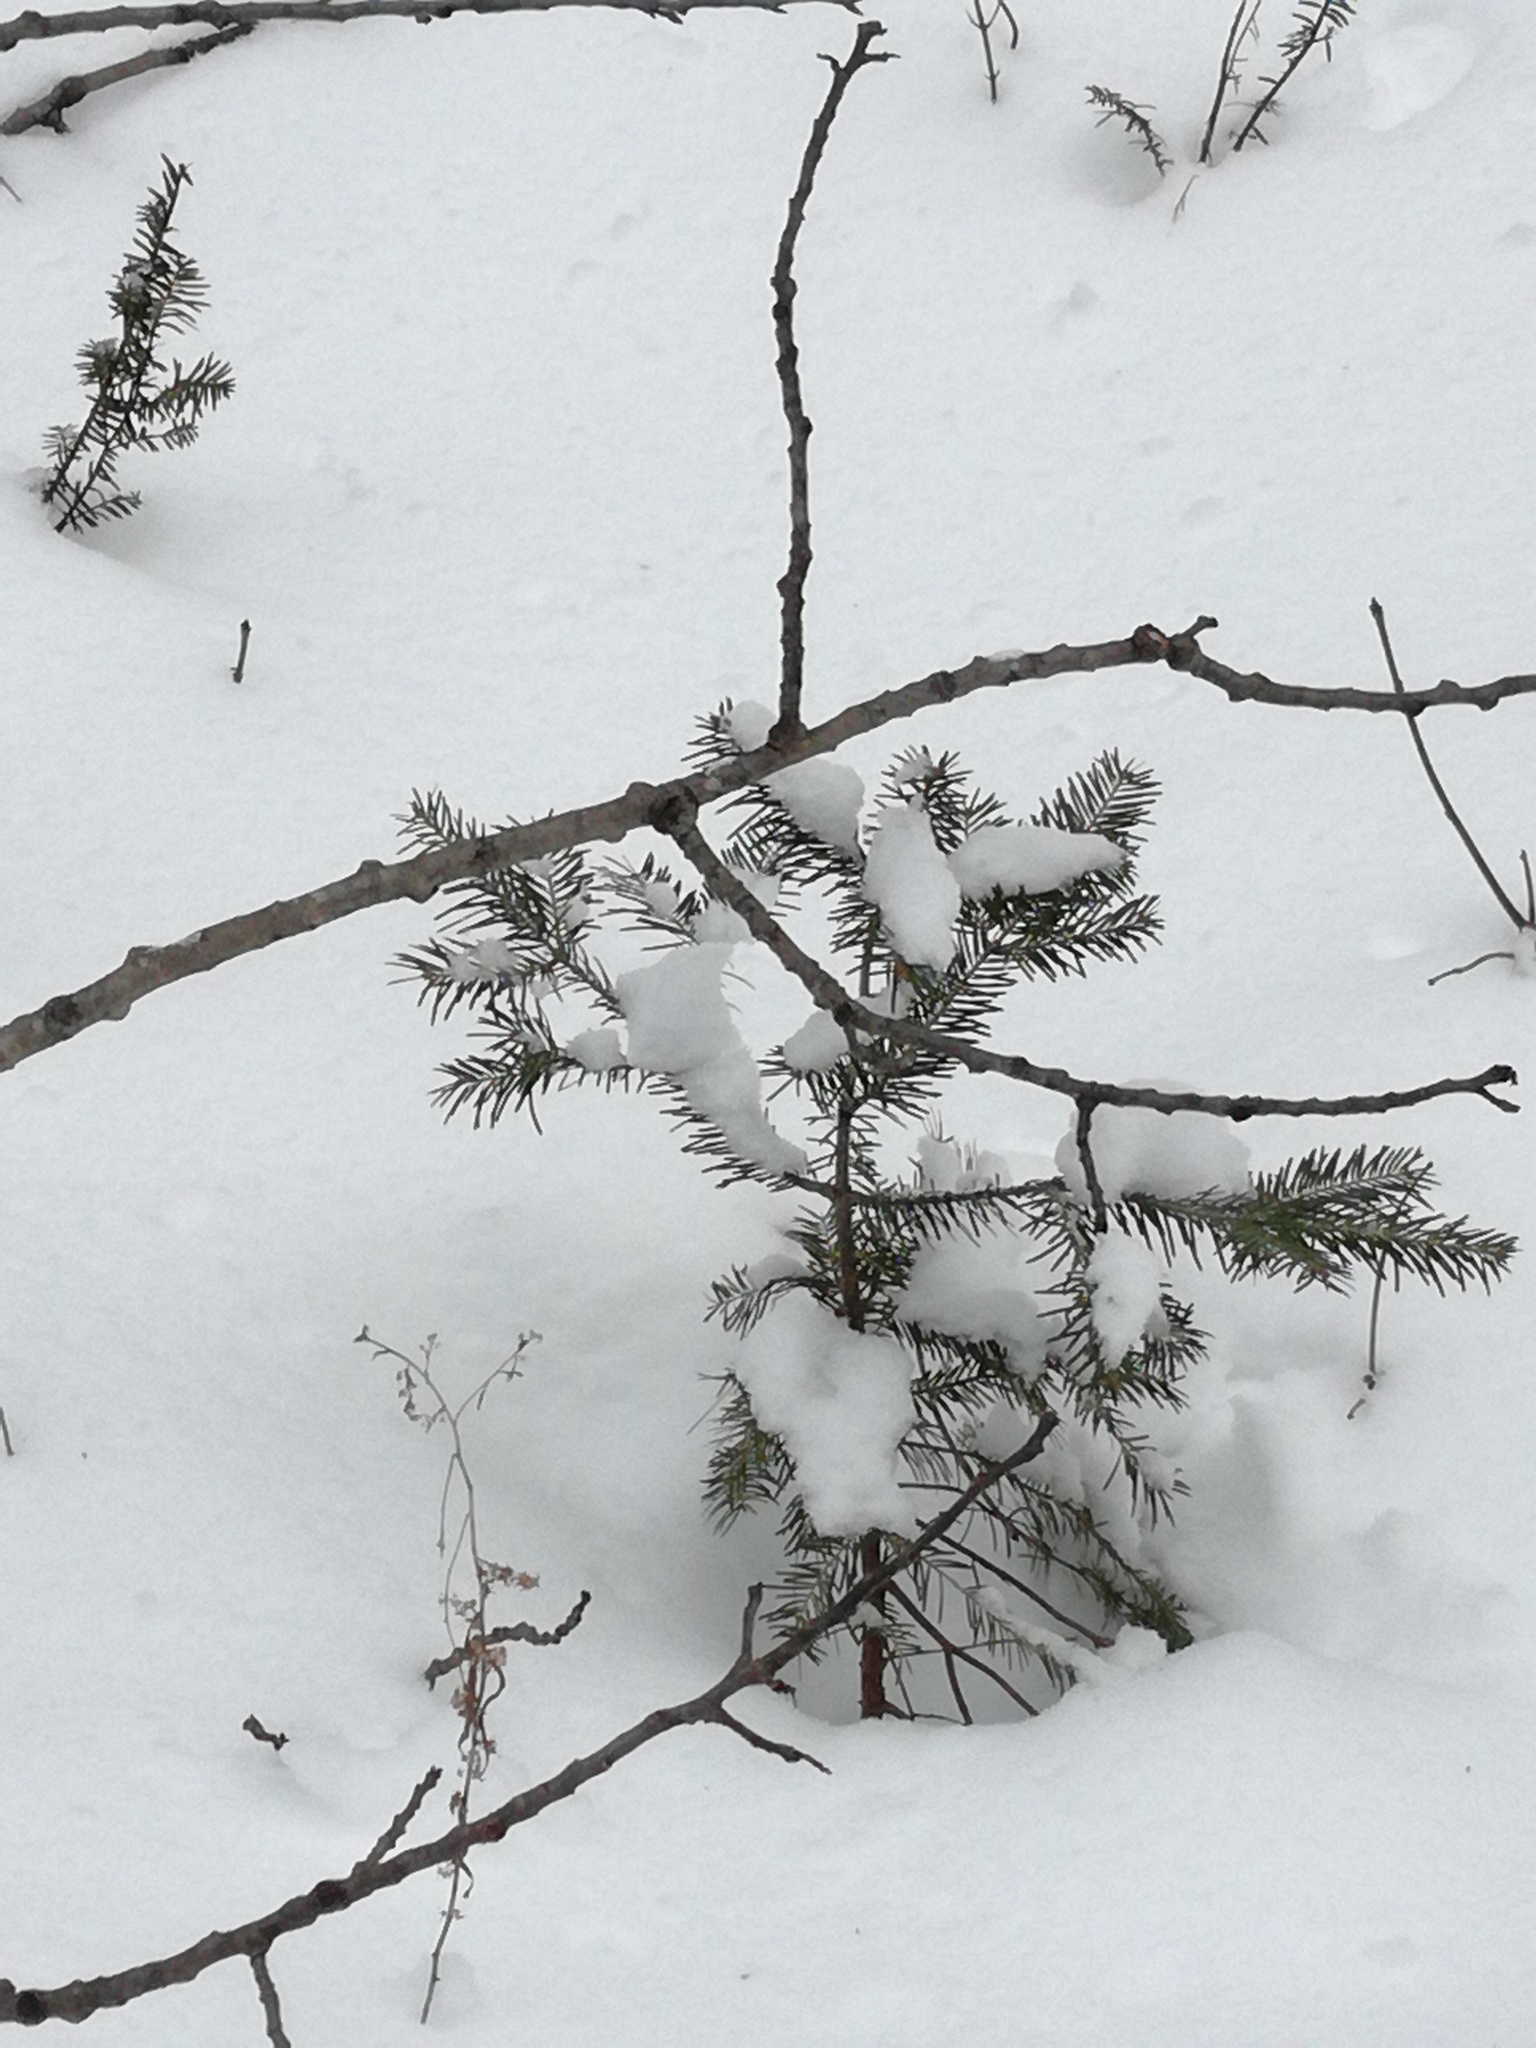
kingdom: Plantae
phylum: Tracheophyta
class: Pinopsida
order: Pinales
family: Pinaceae
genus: Abies
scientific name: Abies balsamea
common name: Balsam fir
